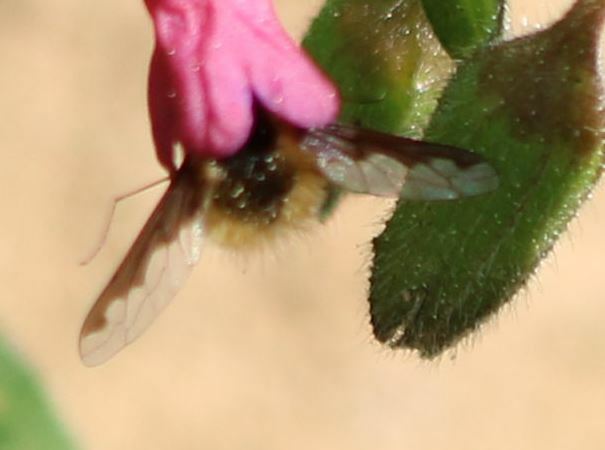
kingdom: Animalia
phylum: Arthropoda
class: Insecta
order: Diptera
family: Bombyliidae
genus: Bombylius
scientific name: Bombylius major
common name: Bee fly
